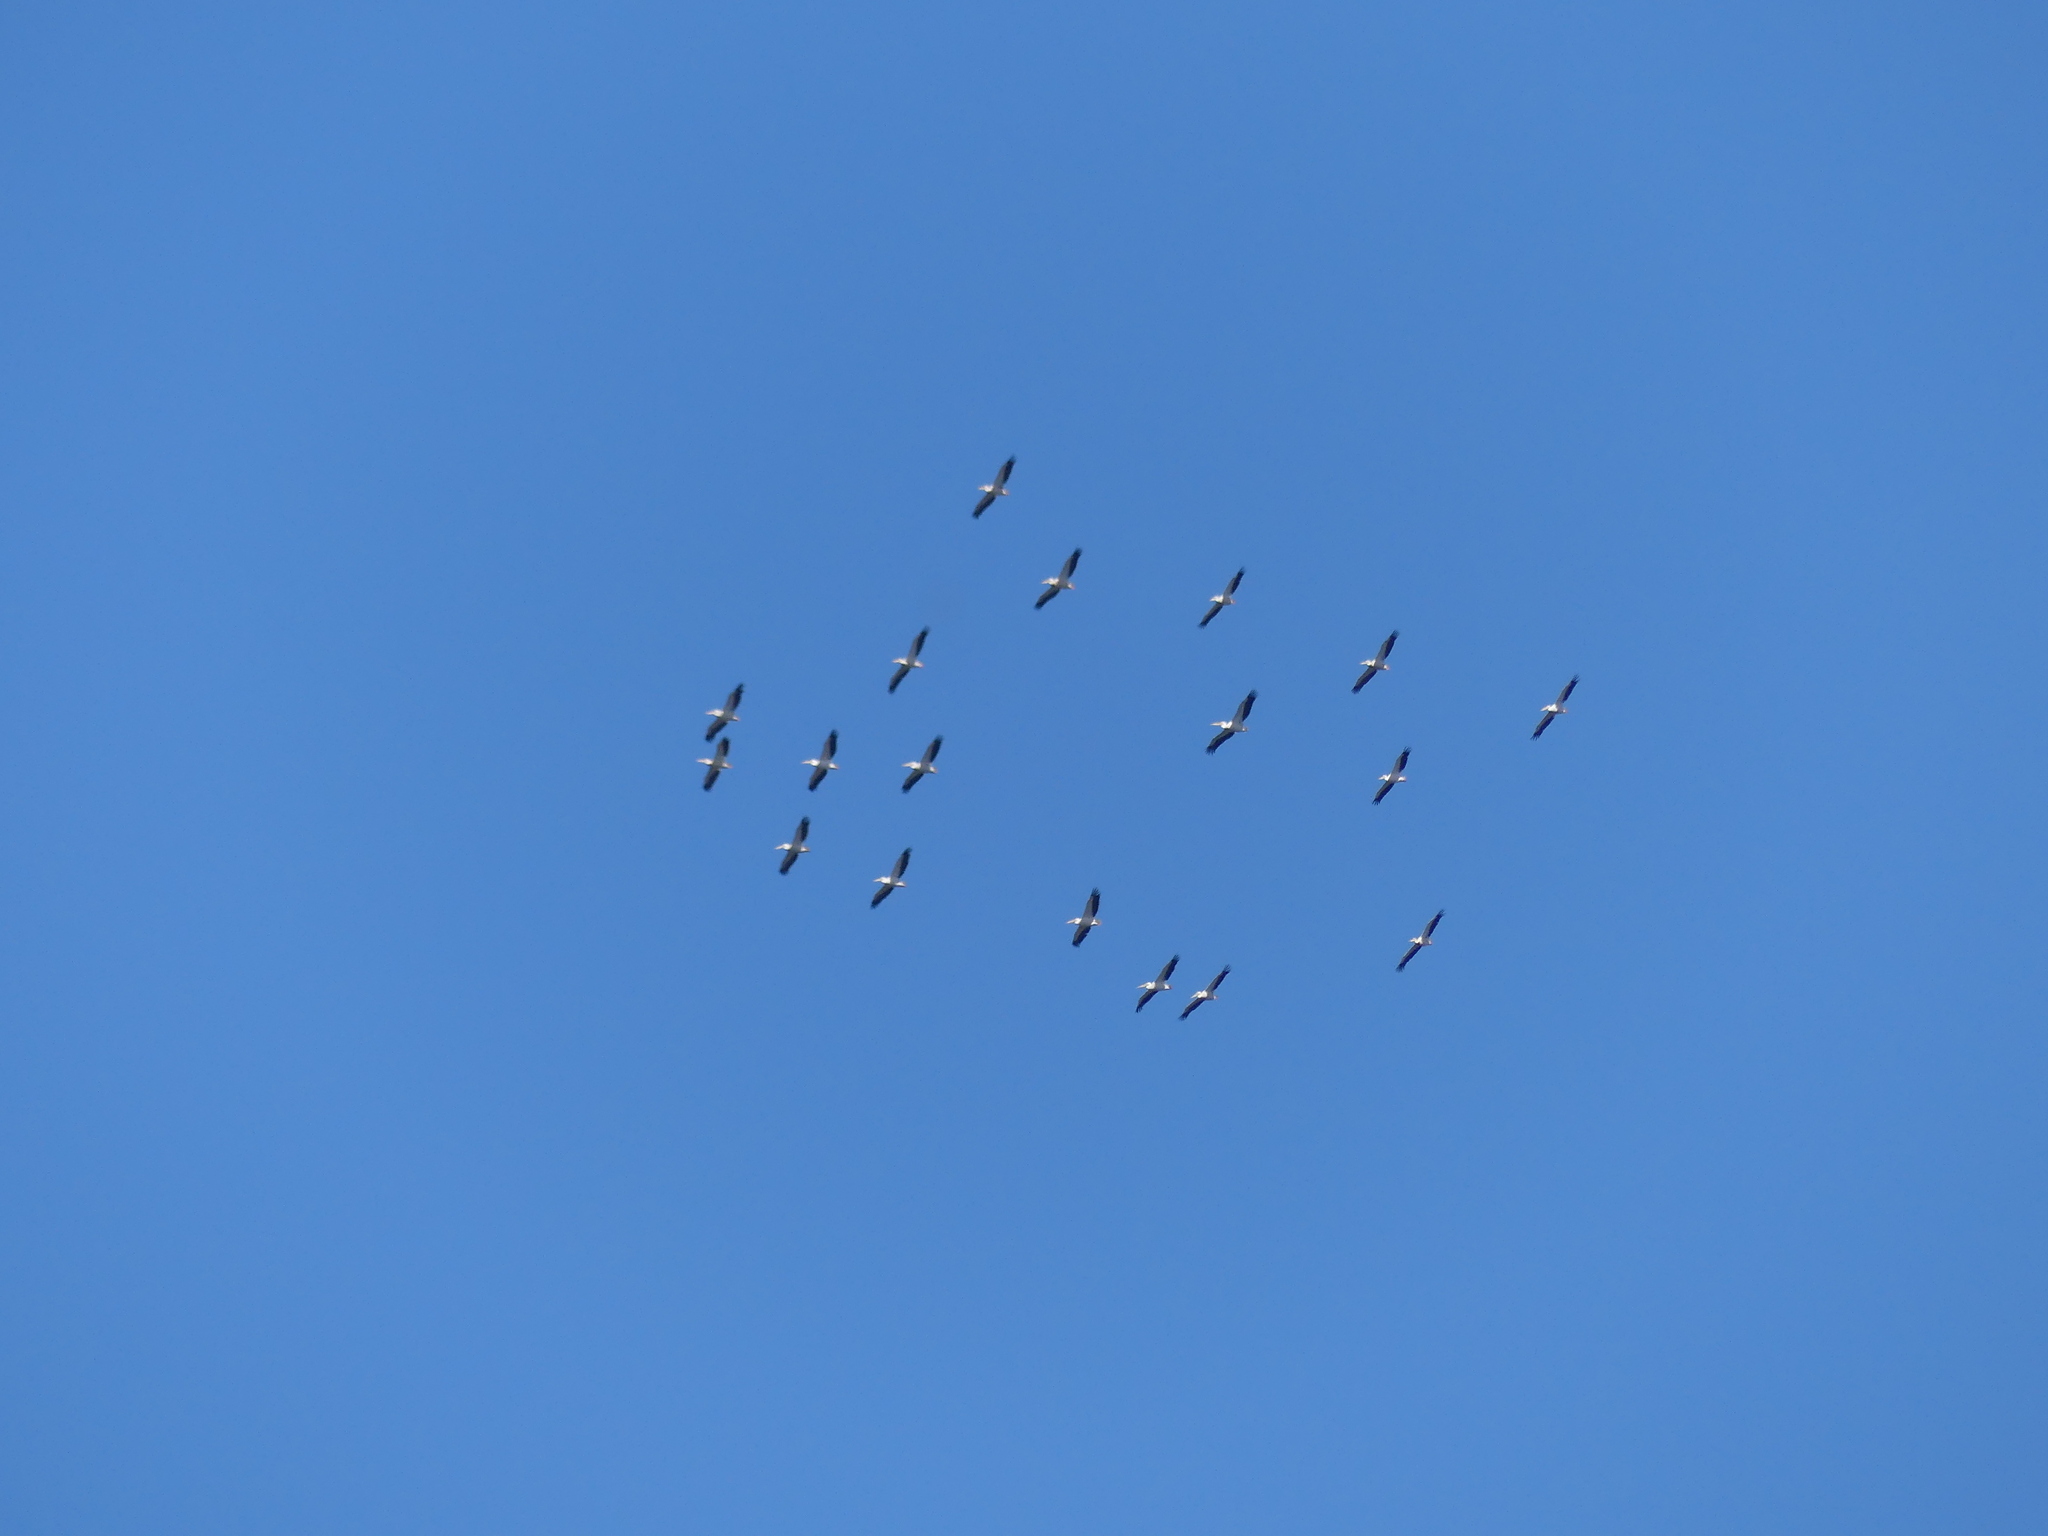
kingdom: Animalia
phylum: Chordata
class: Aves
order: Pelecaniformes
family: Pelecanidae
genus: Pelecanus
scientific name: Pelecanus onocrotalus
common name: Great white pelican
